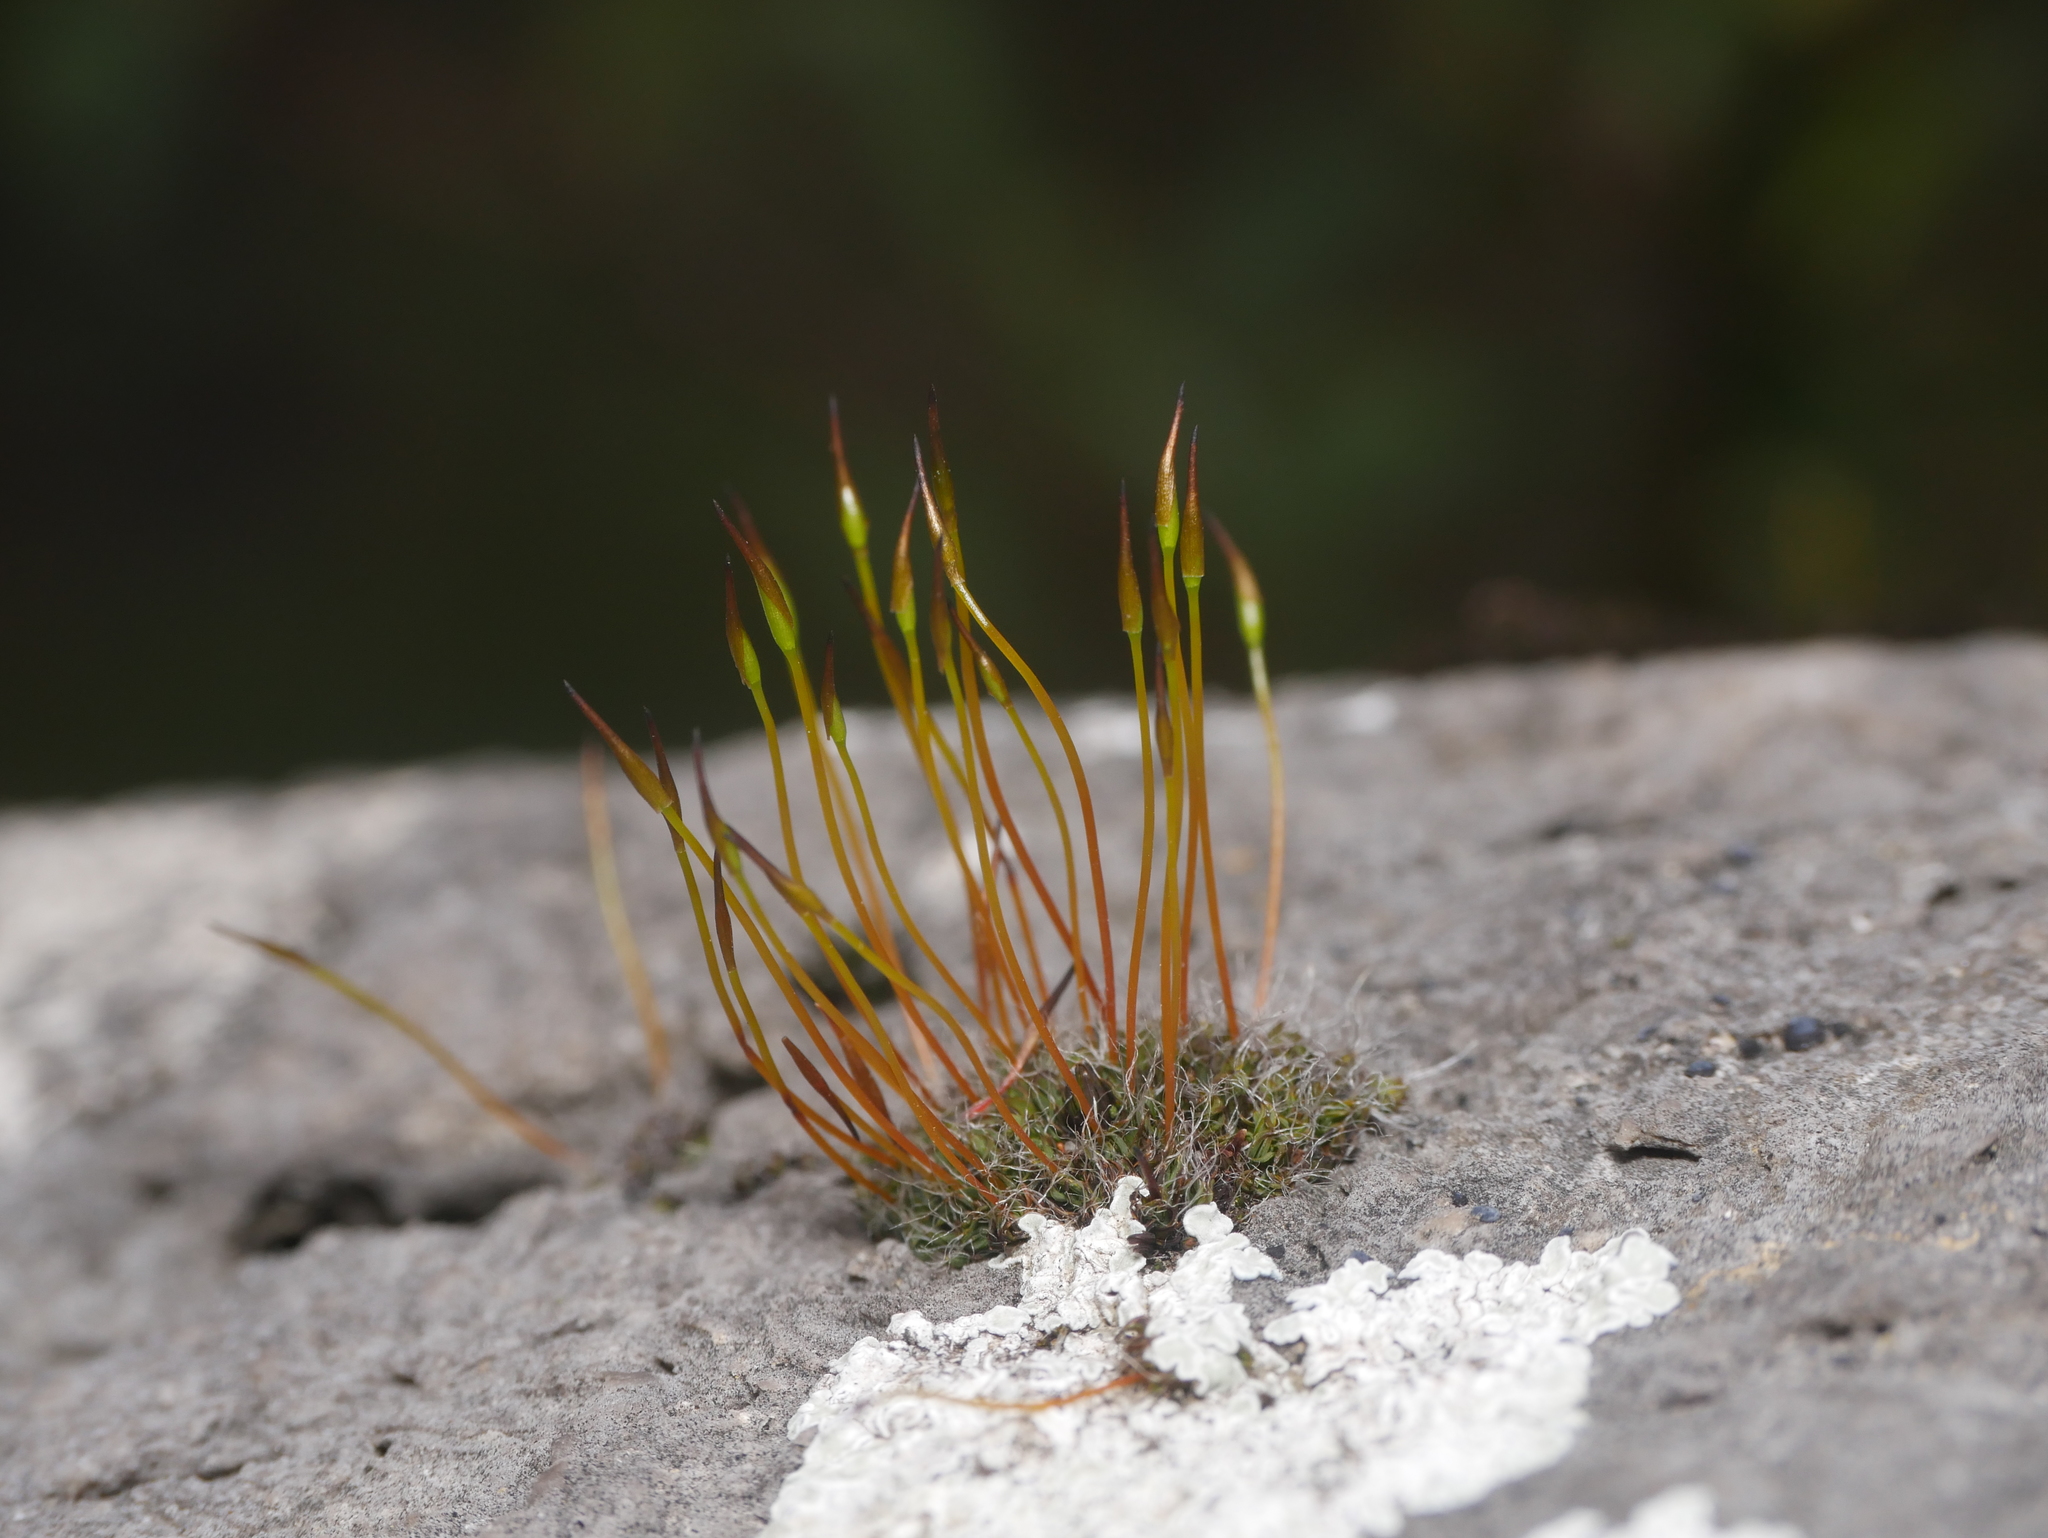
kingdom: Plantae
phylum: Bryophyta
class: Bryopsida
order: Pottiales
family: Pottiaceae
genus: Tortula
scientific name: Tortula muralis
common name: Wall screw-moss
